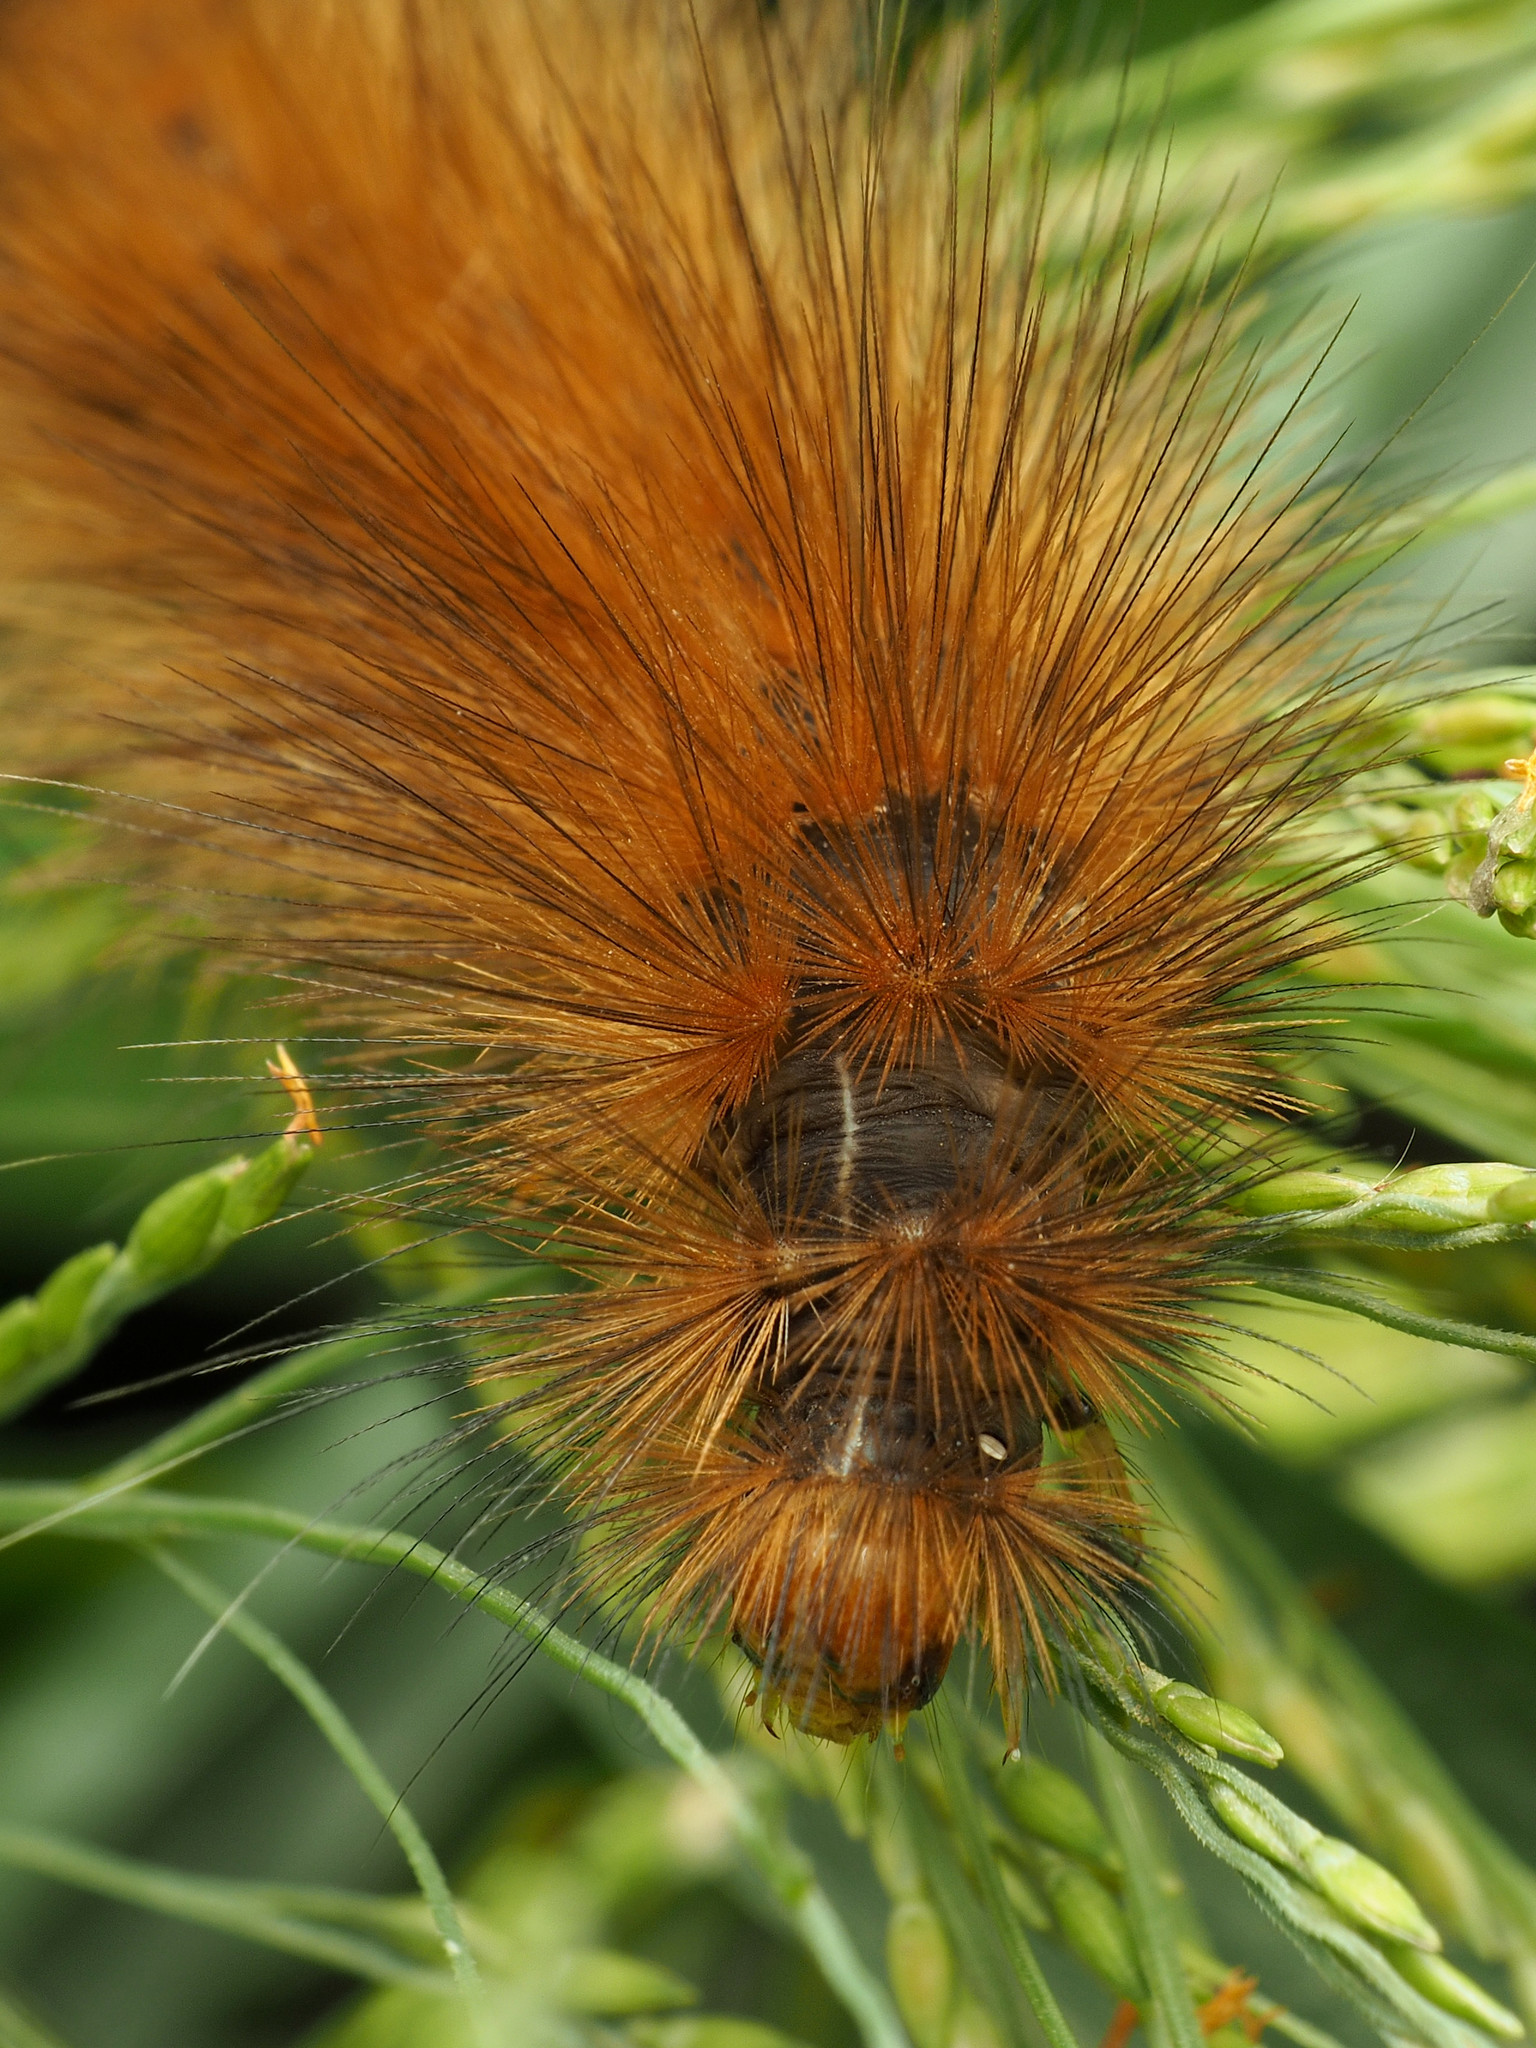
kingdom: Animalia
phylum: Arthropoda
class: Insecta
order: Lepidoptera
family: Erebidae
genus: Spilosoma
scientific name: Spilosoma virginica
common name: Virginia tiger moth
